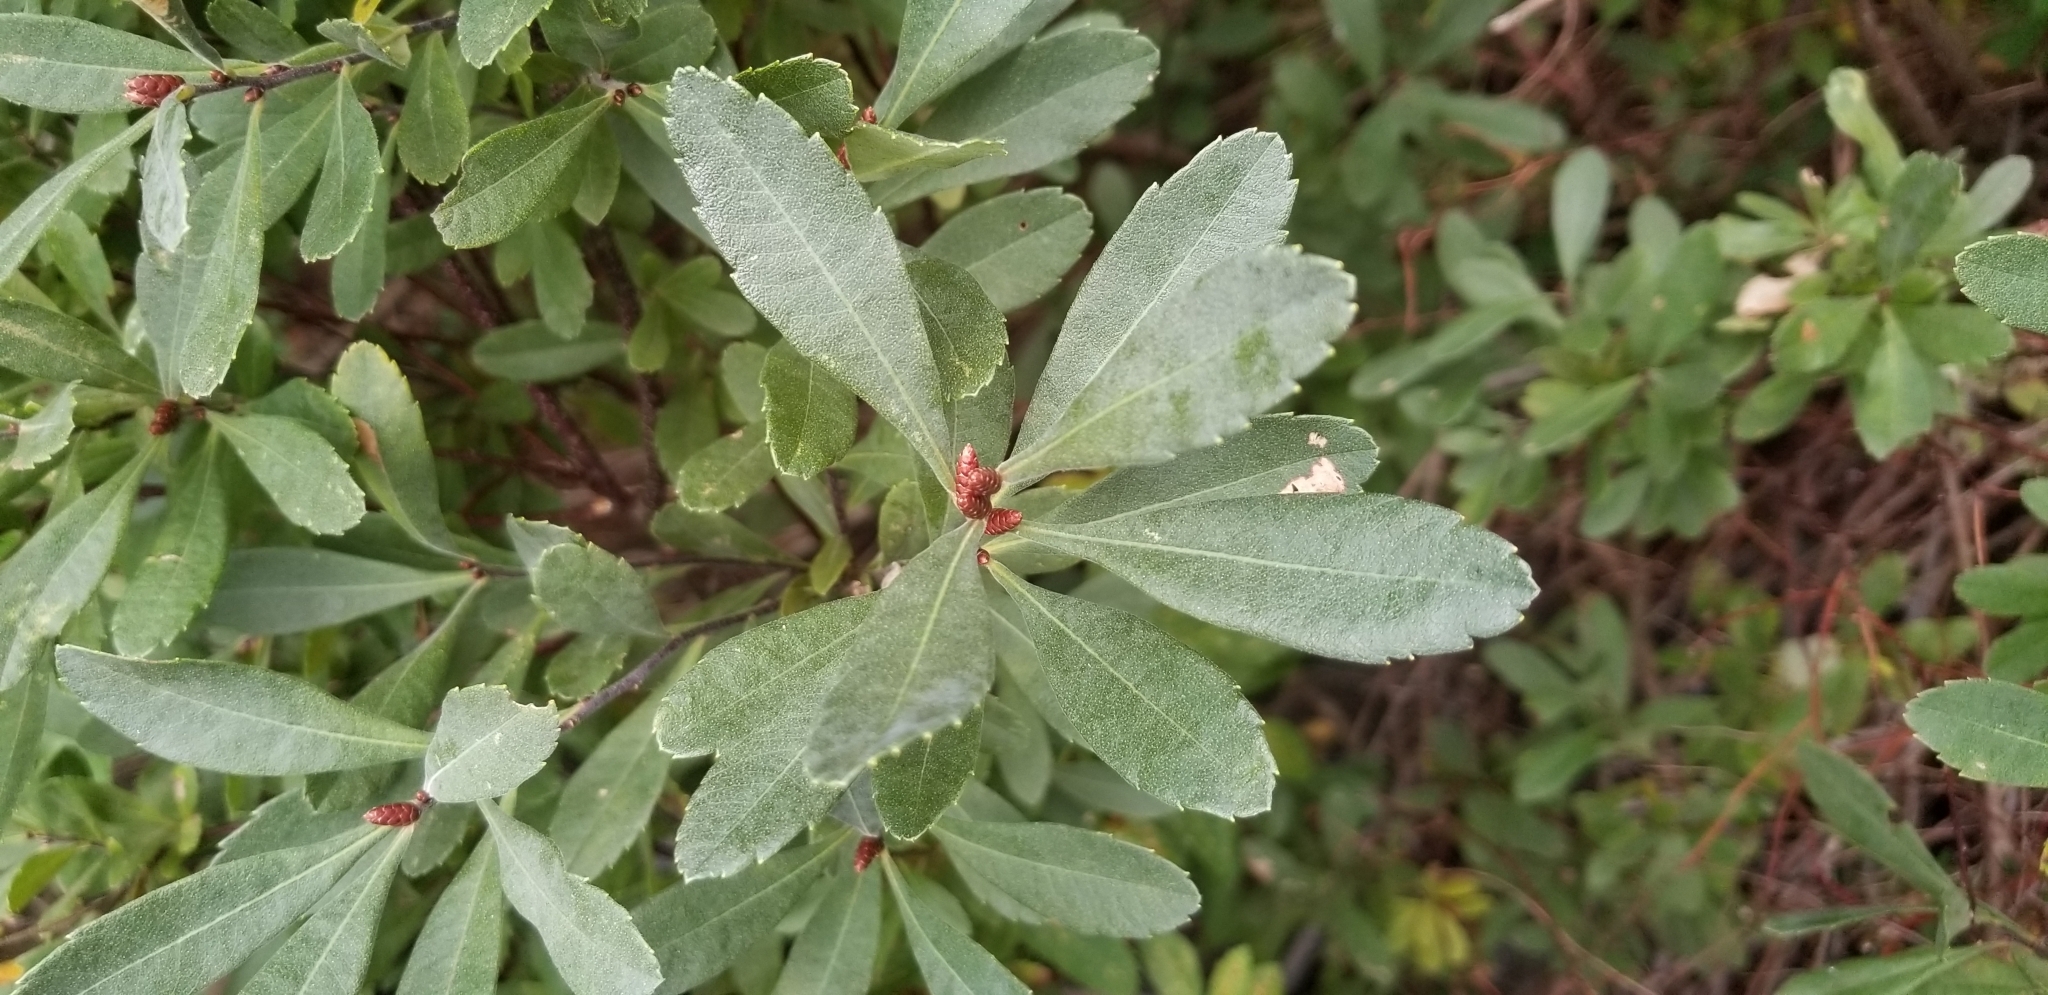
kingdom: Plantae
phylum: Tracheophyta
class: Magnoliopsida
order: Fagales
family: Myricaceae
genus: Myrica
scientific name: Myrica gale
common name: Sweet gale
